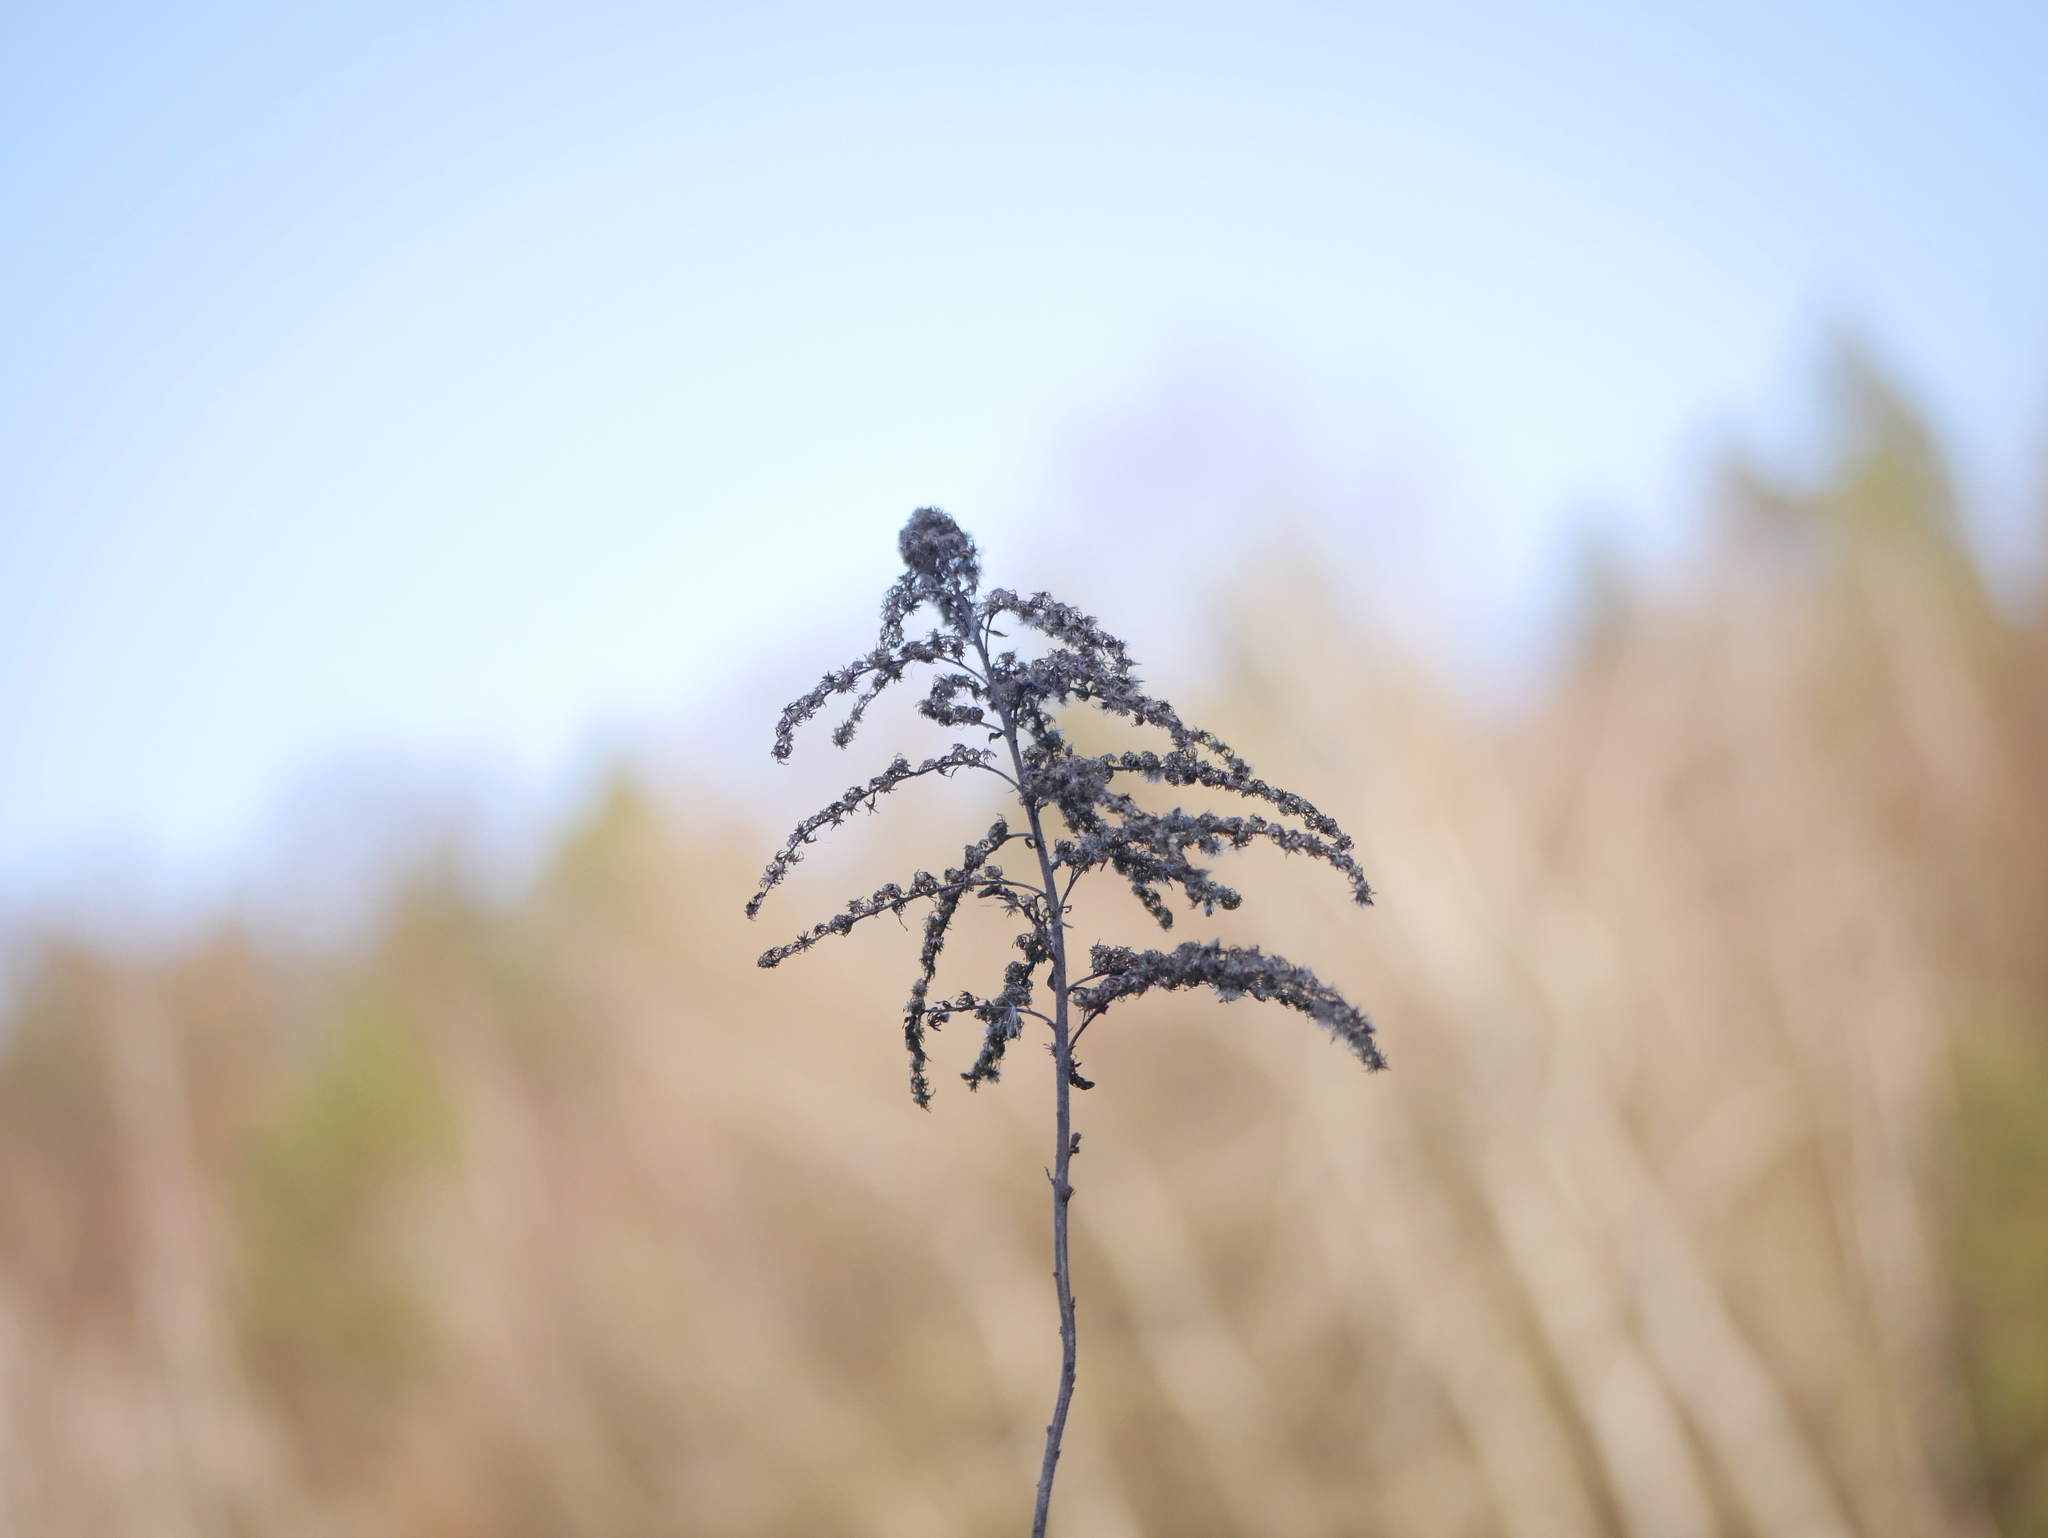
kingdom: Plantae
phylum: Tracheophyta
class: Magnoliopsida
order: Asterales
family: Asteraceae
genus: Solidago
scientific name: Solidago canadensis
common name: Canada goldenrod
